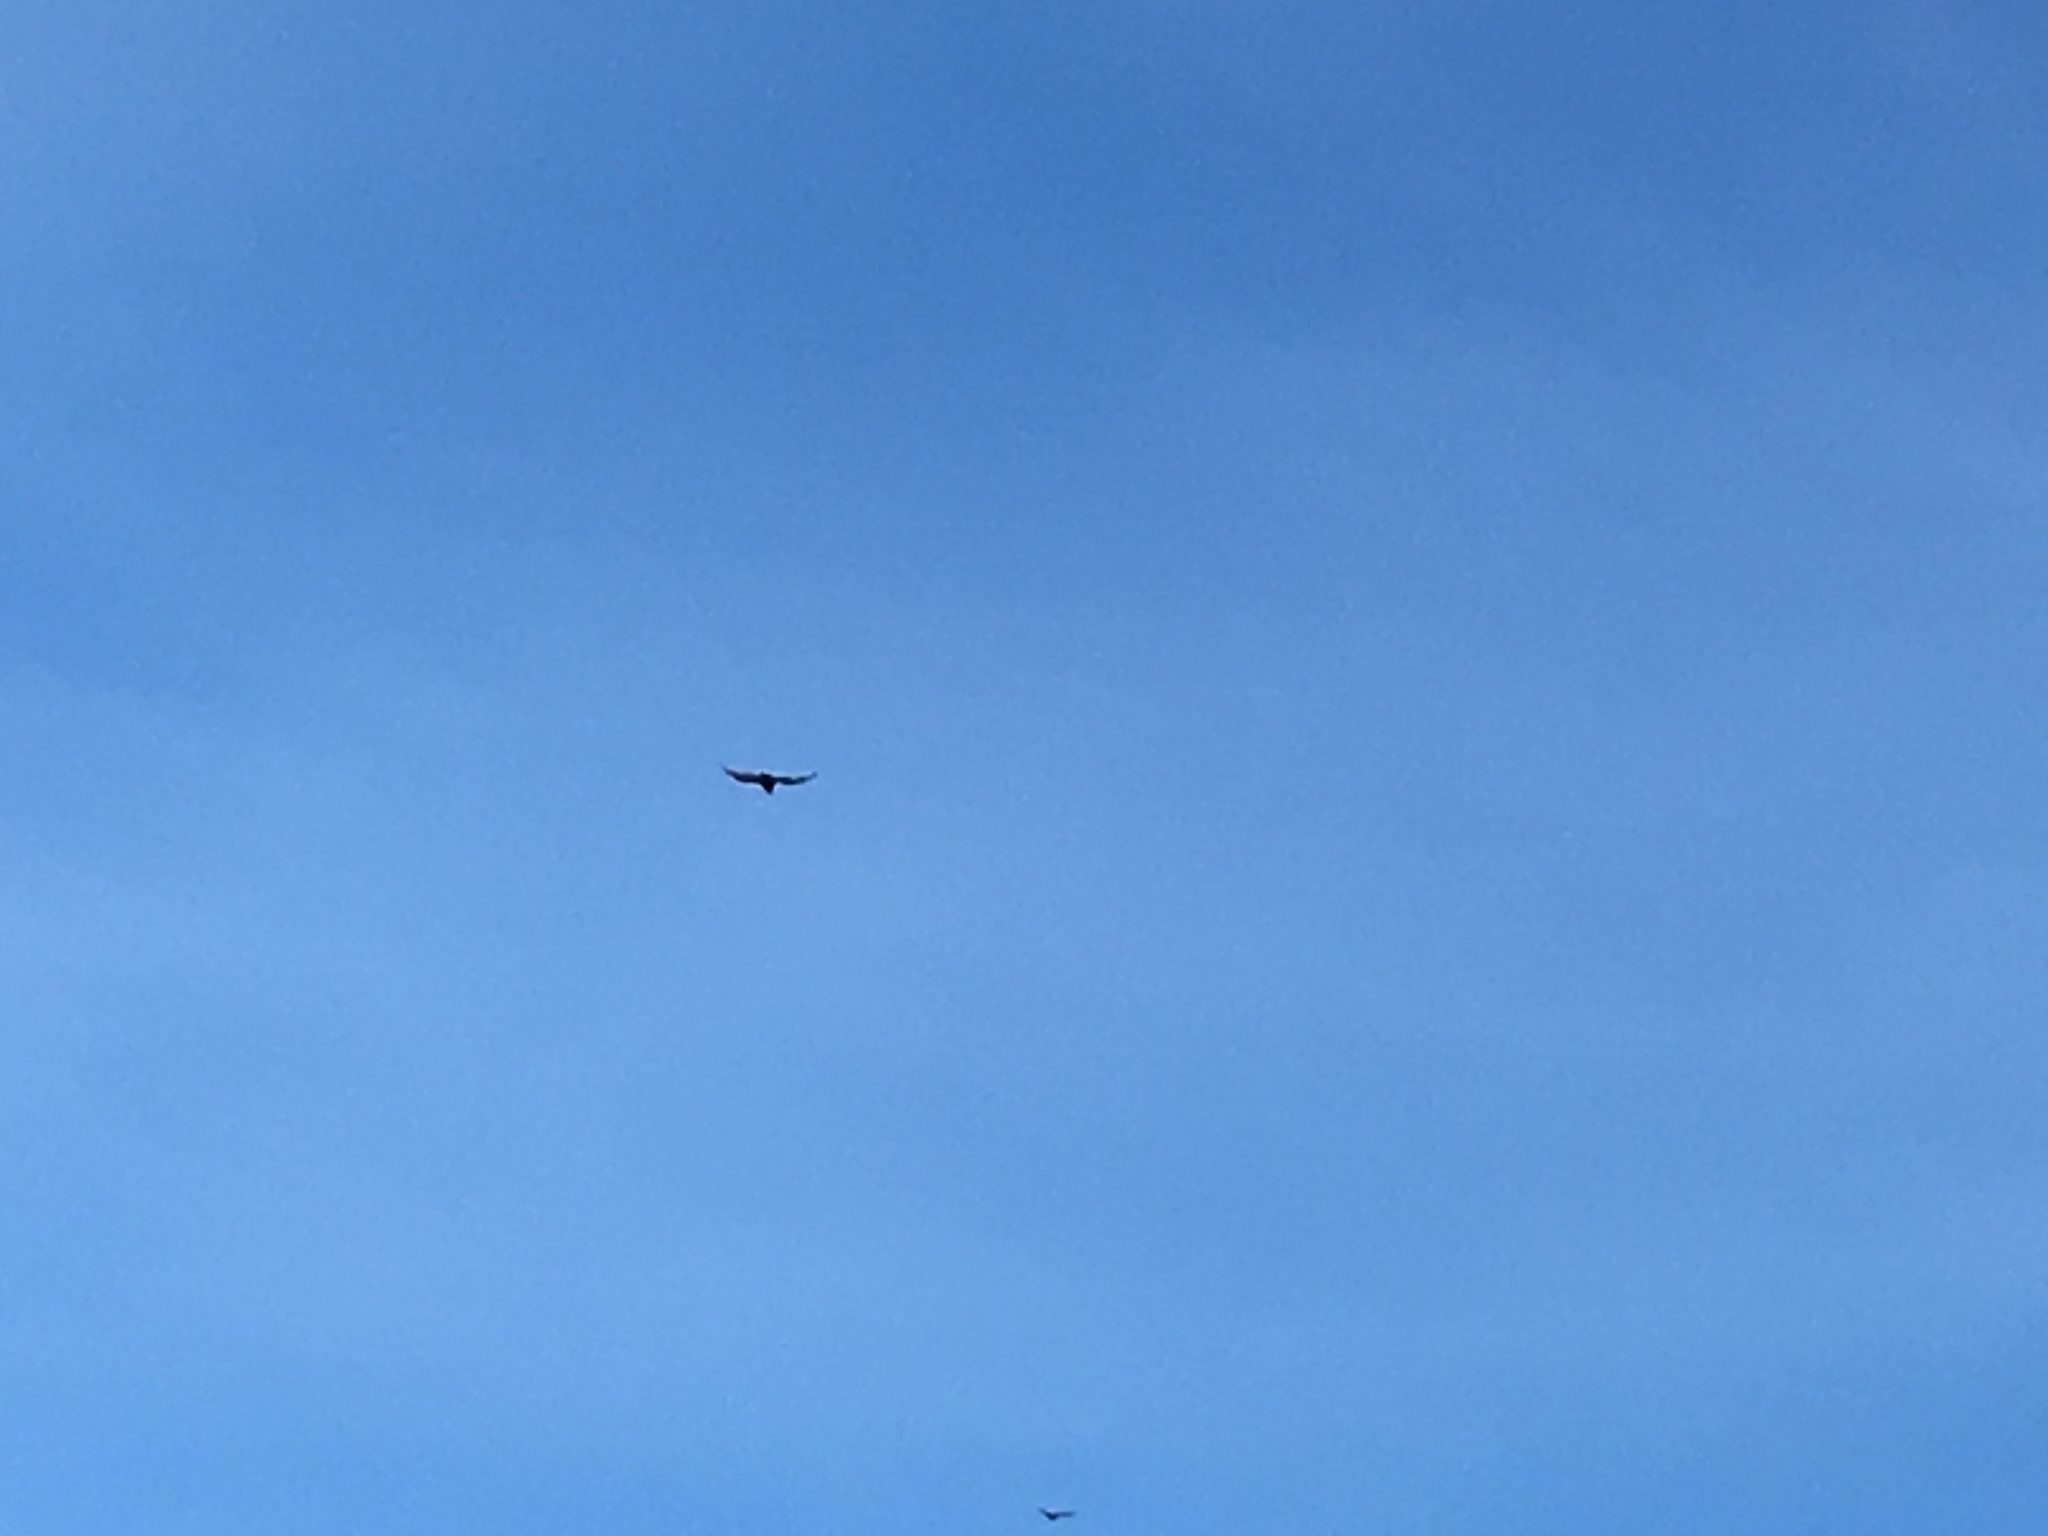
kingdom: Animalia
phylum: Chordata
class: Aves
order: Accipitriformes
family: Cathartidae
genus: Cathartes
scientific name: Cathartes aura
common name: Turkey vulture
